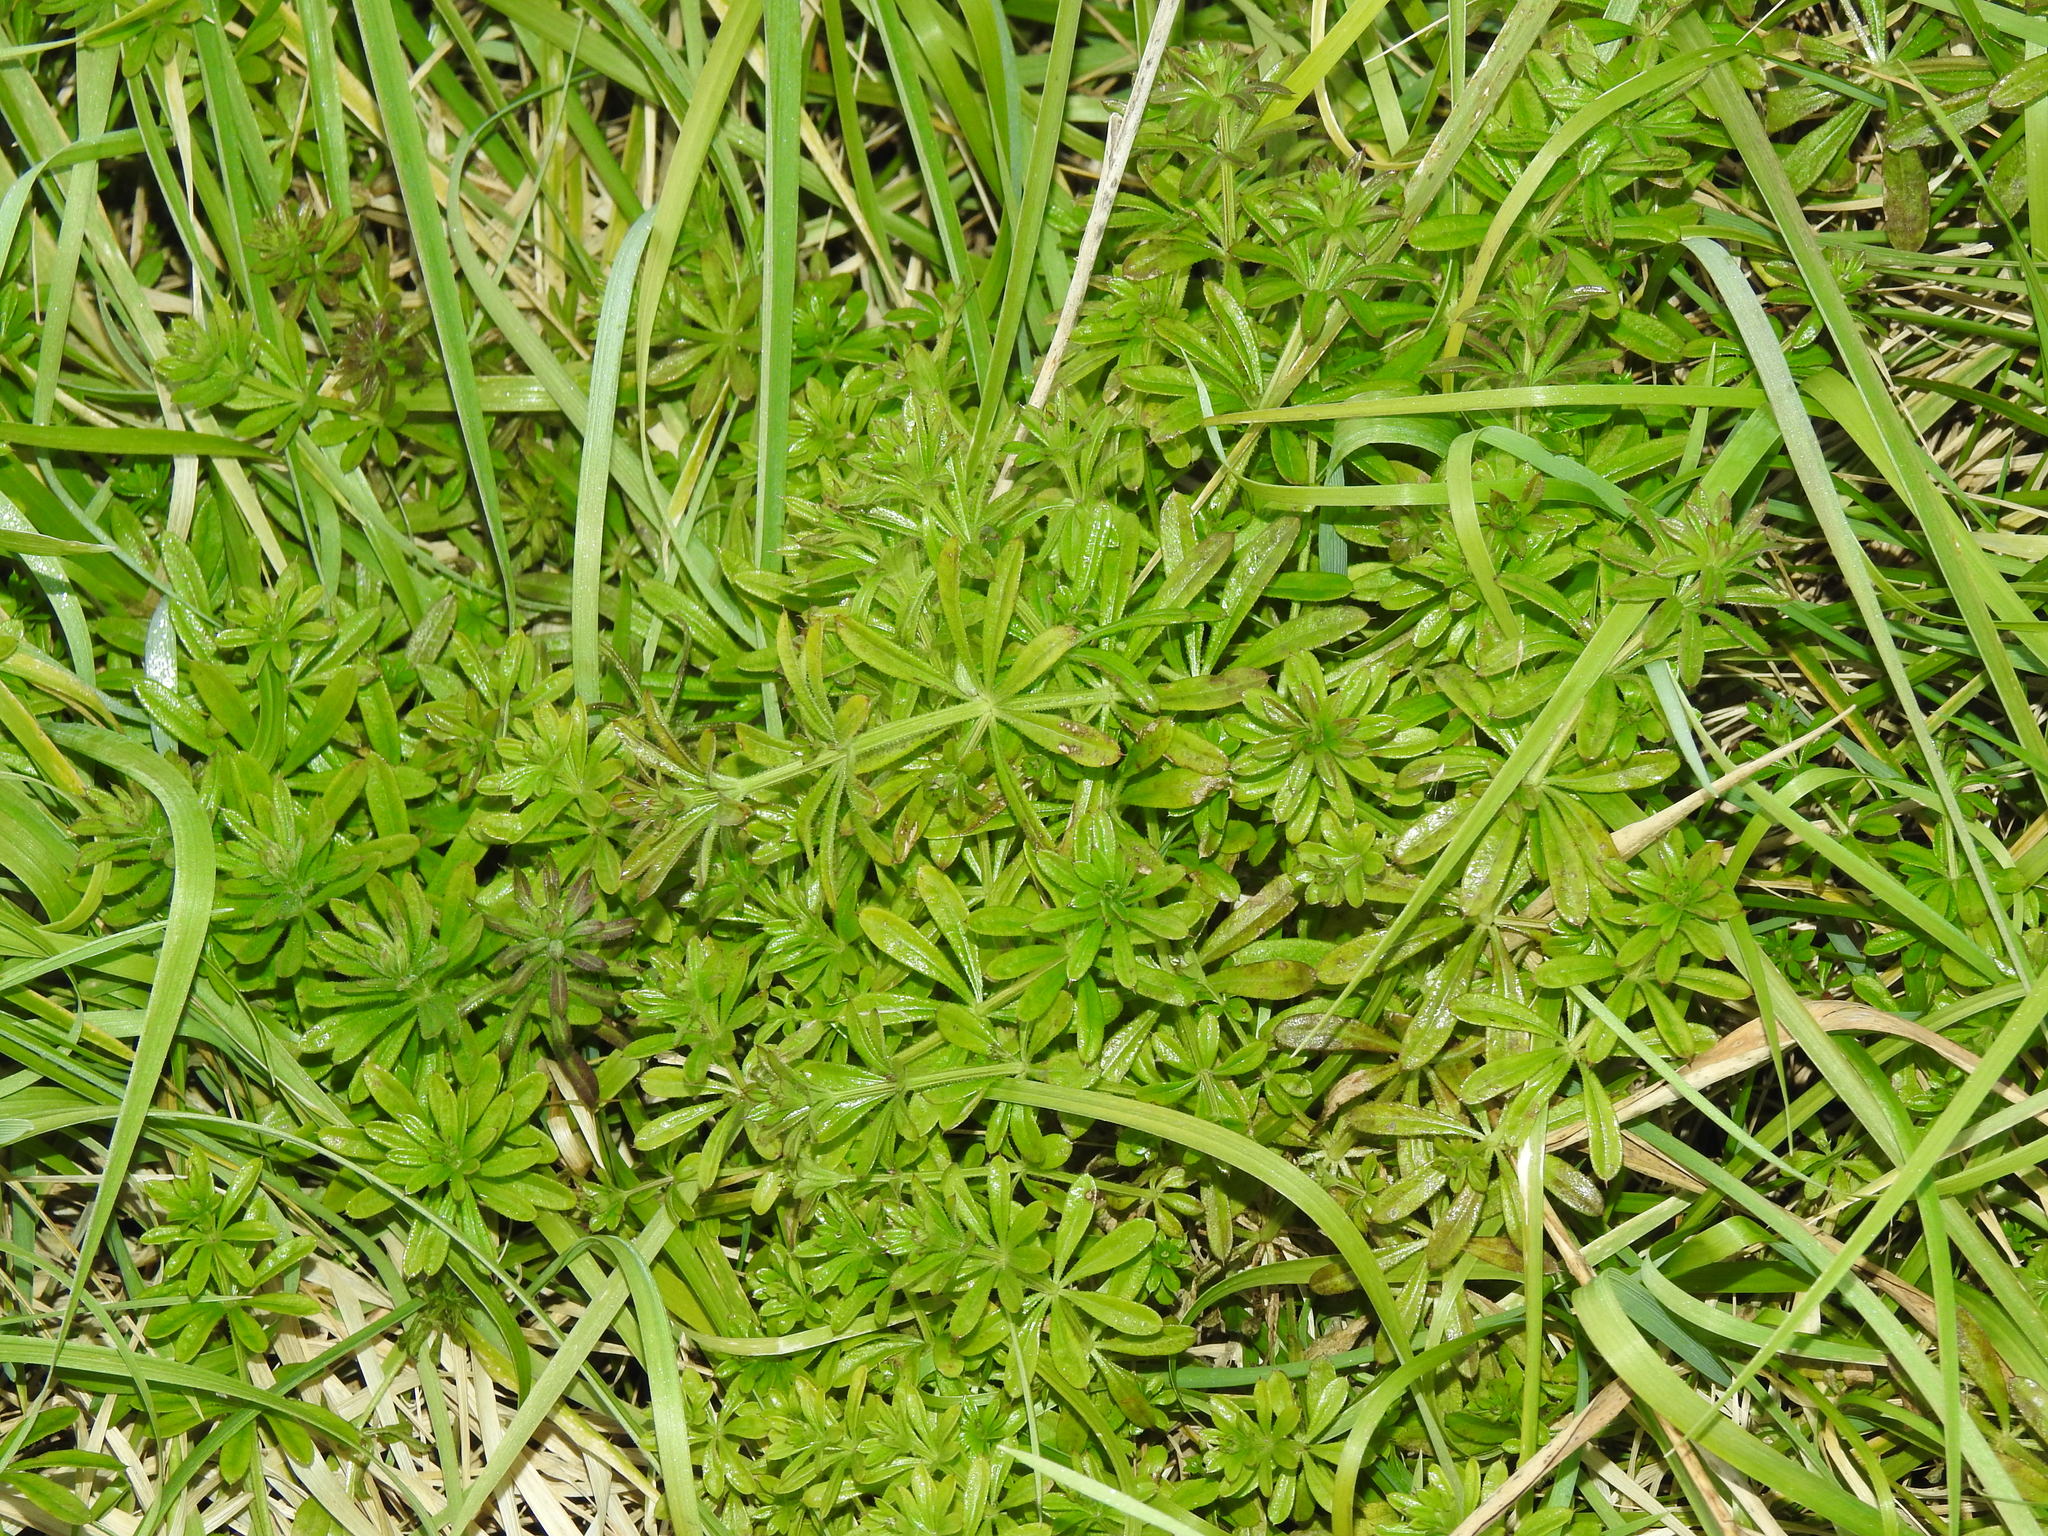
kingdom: Plantae
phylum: Tracheophyta
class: Magnoliopsida
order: Gentianales
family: Rubiaceae
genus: Galium
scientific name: Galium aparine
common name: Cleavers
